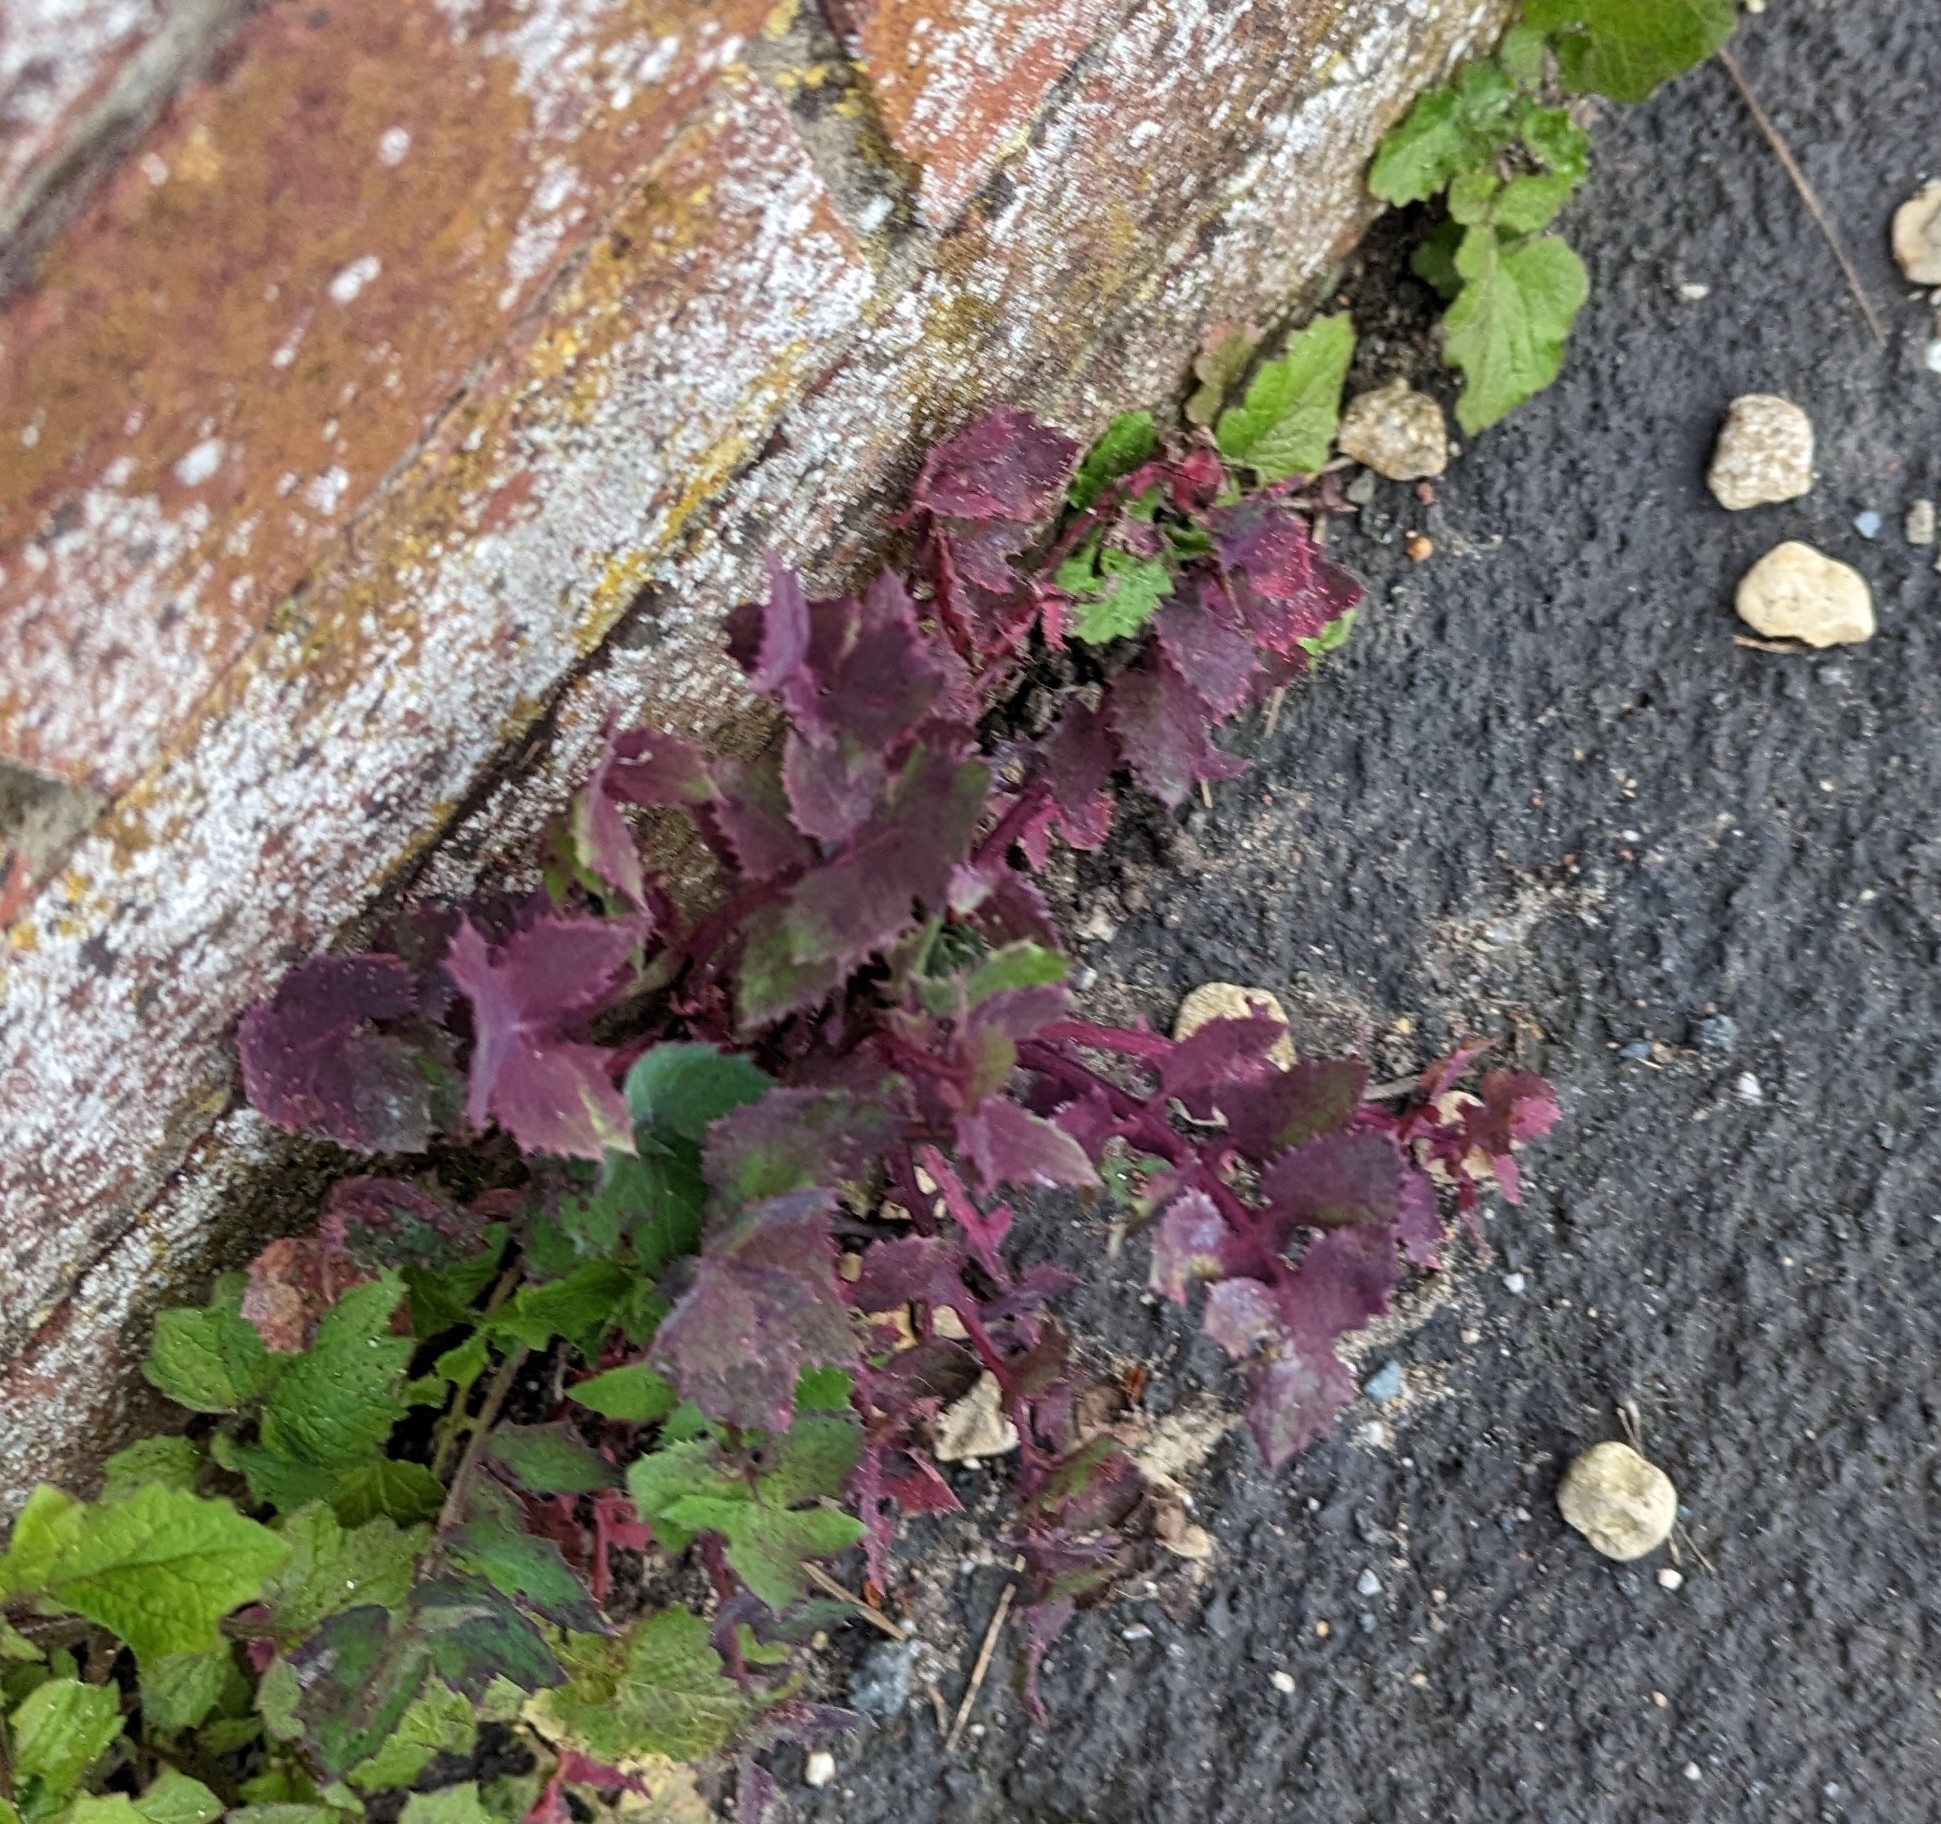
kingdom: Plantae
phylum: Tracheophyta
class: Magnoliopsida
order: Asterales
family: Asteraceae
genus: Sonchus
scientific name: Sonchus oleraceus
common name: Common sowthistle
